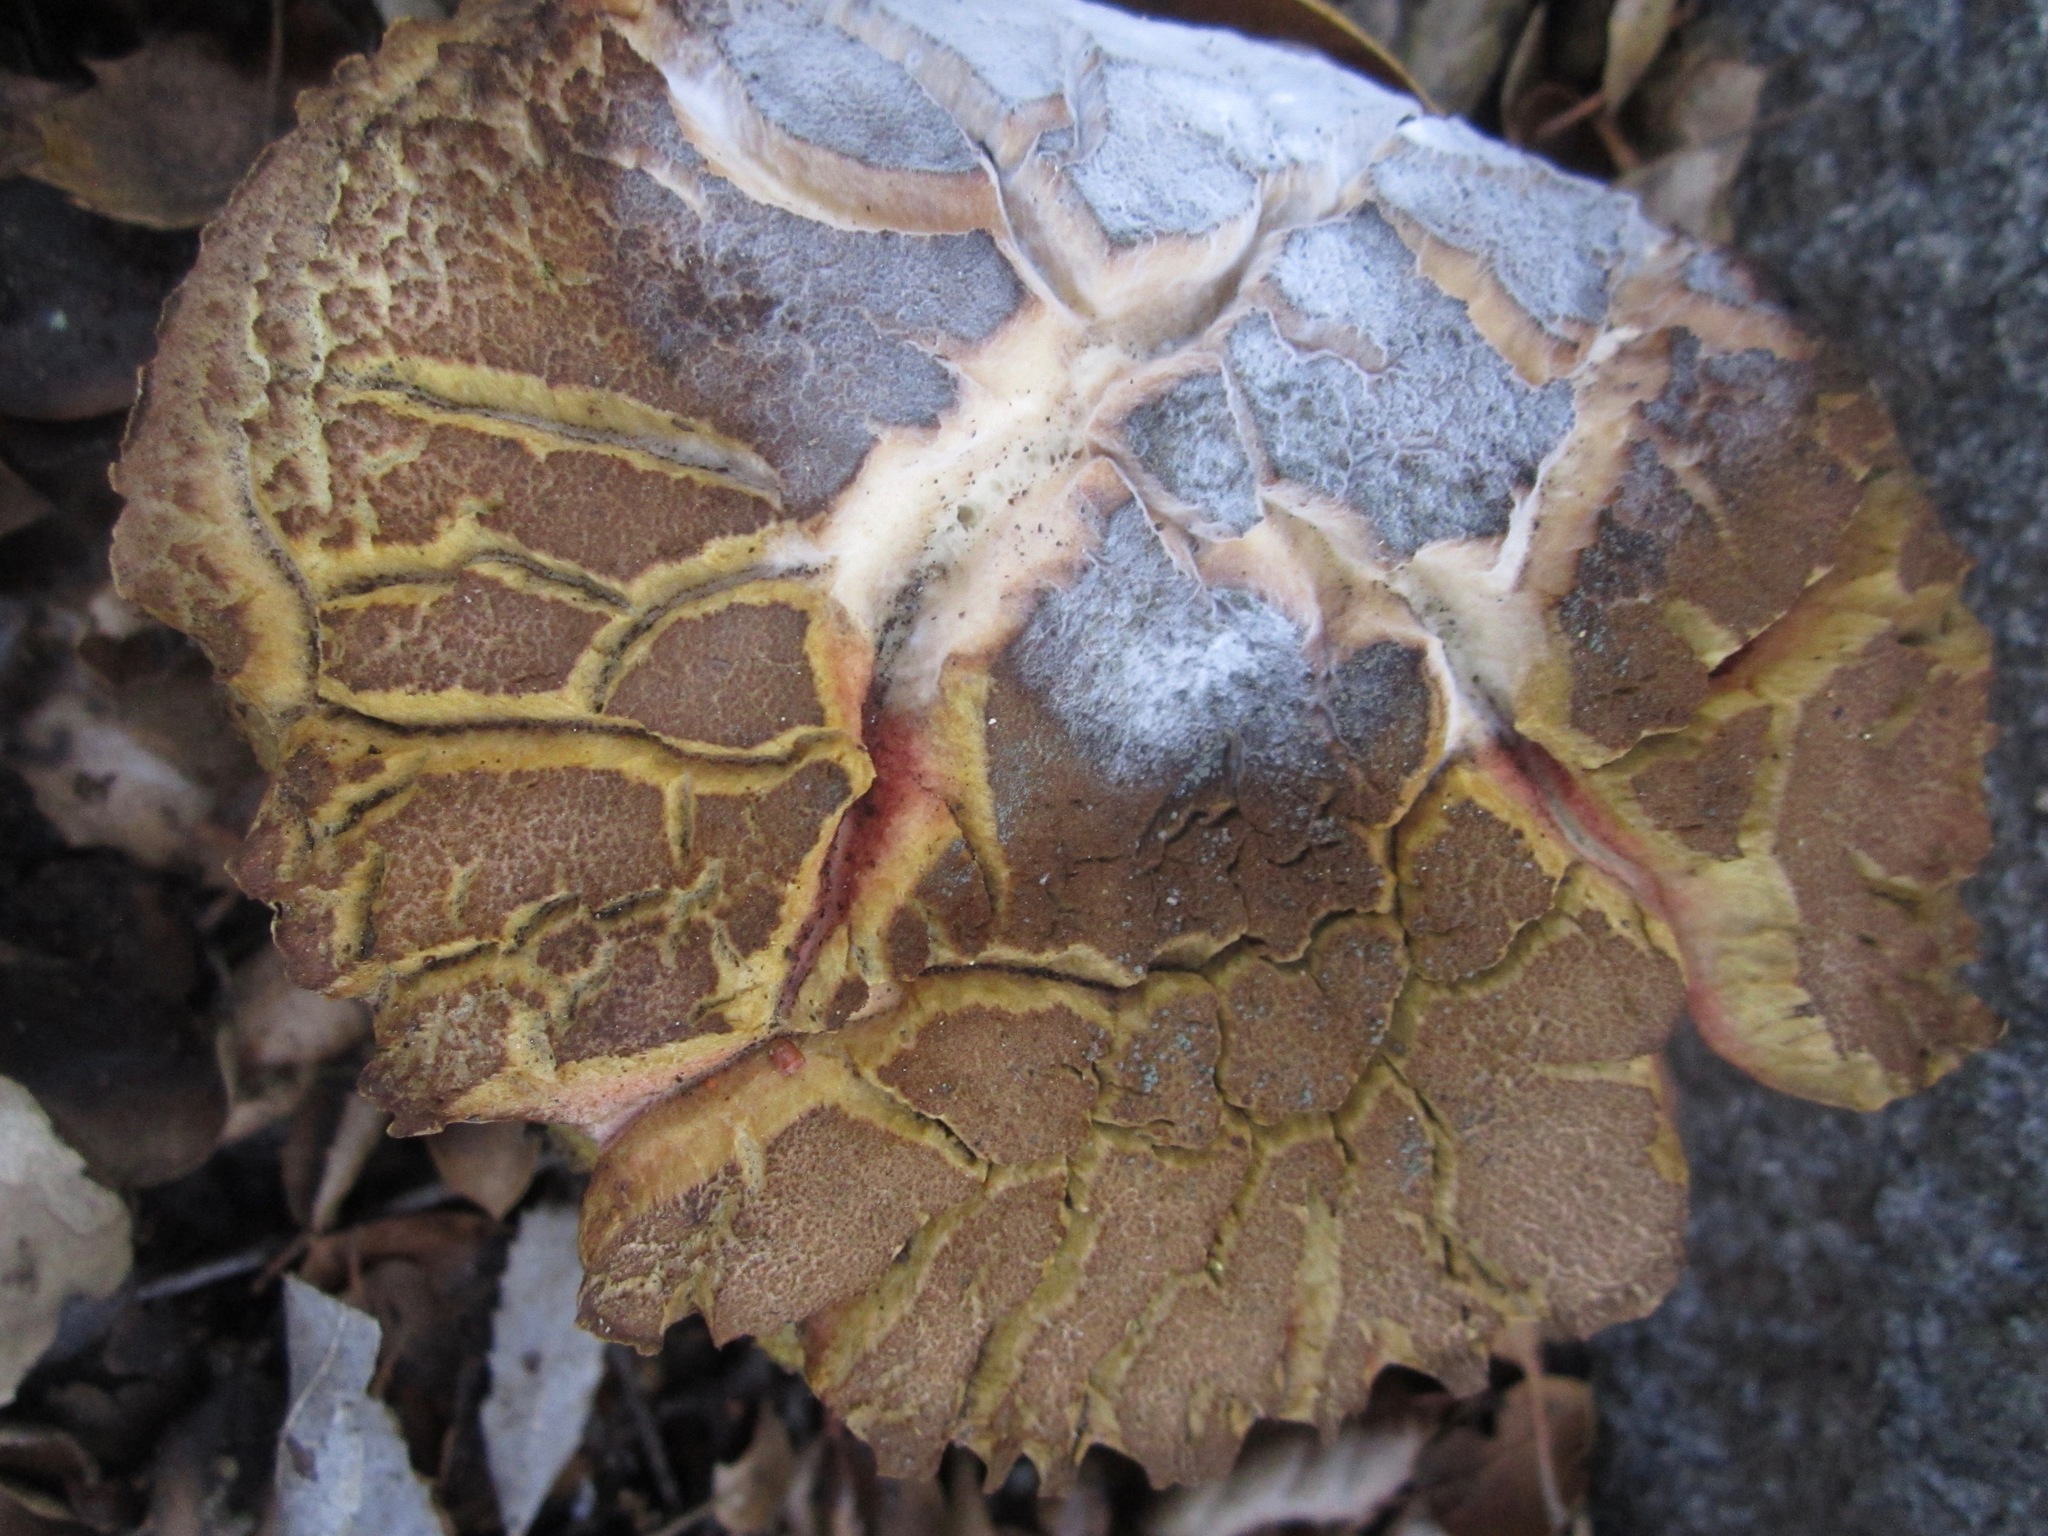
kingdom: Fungi
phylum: Basidiomycota
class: Agaricomycetes
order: Boletales
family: Boletaceae
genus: Xerocomellus
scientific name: Xerocomellus dryophilus
